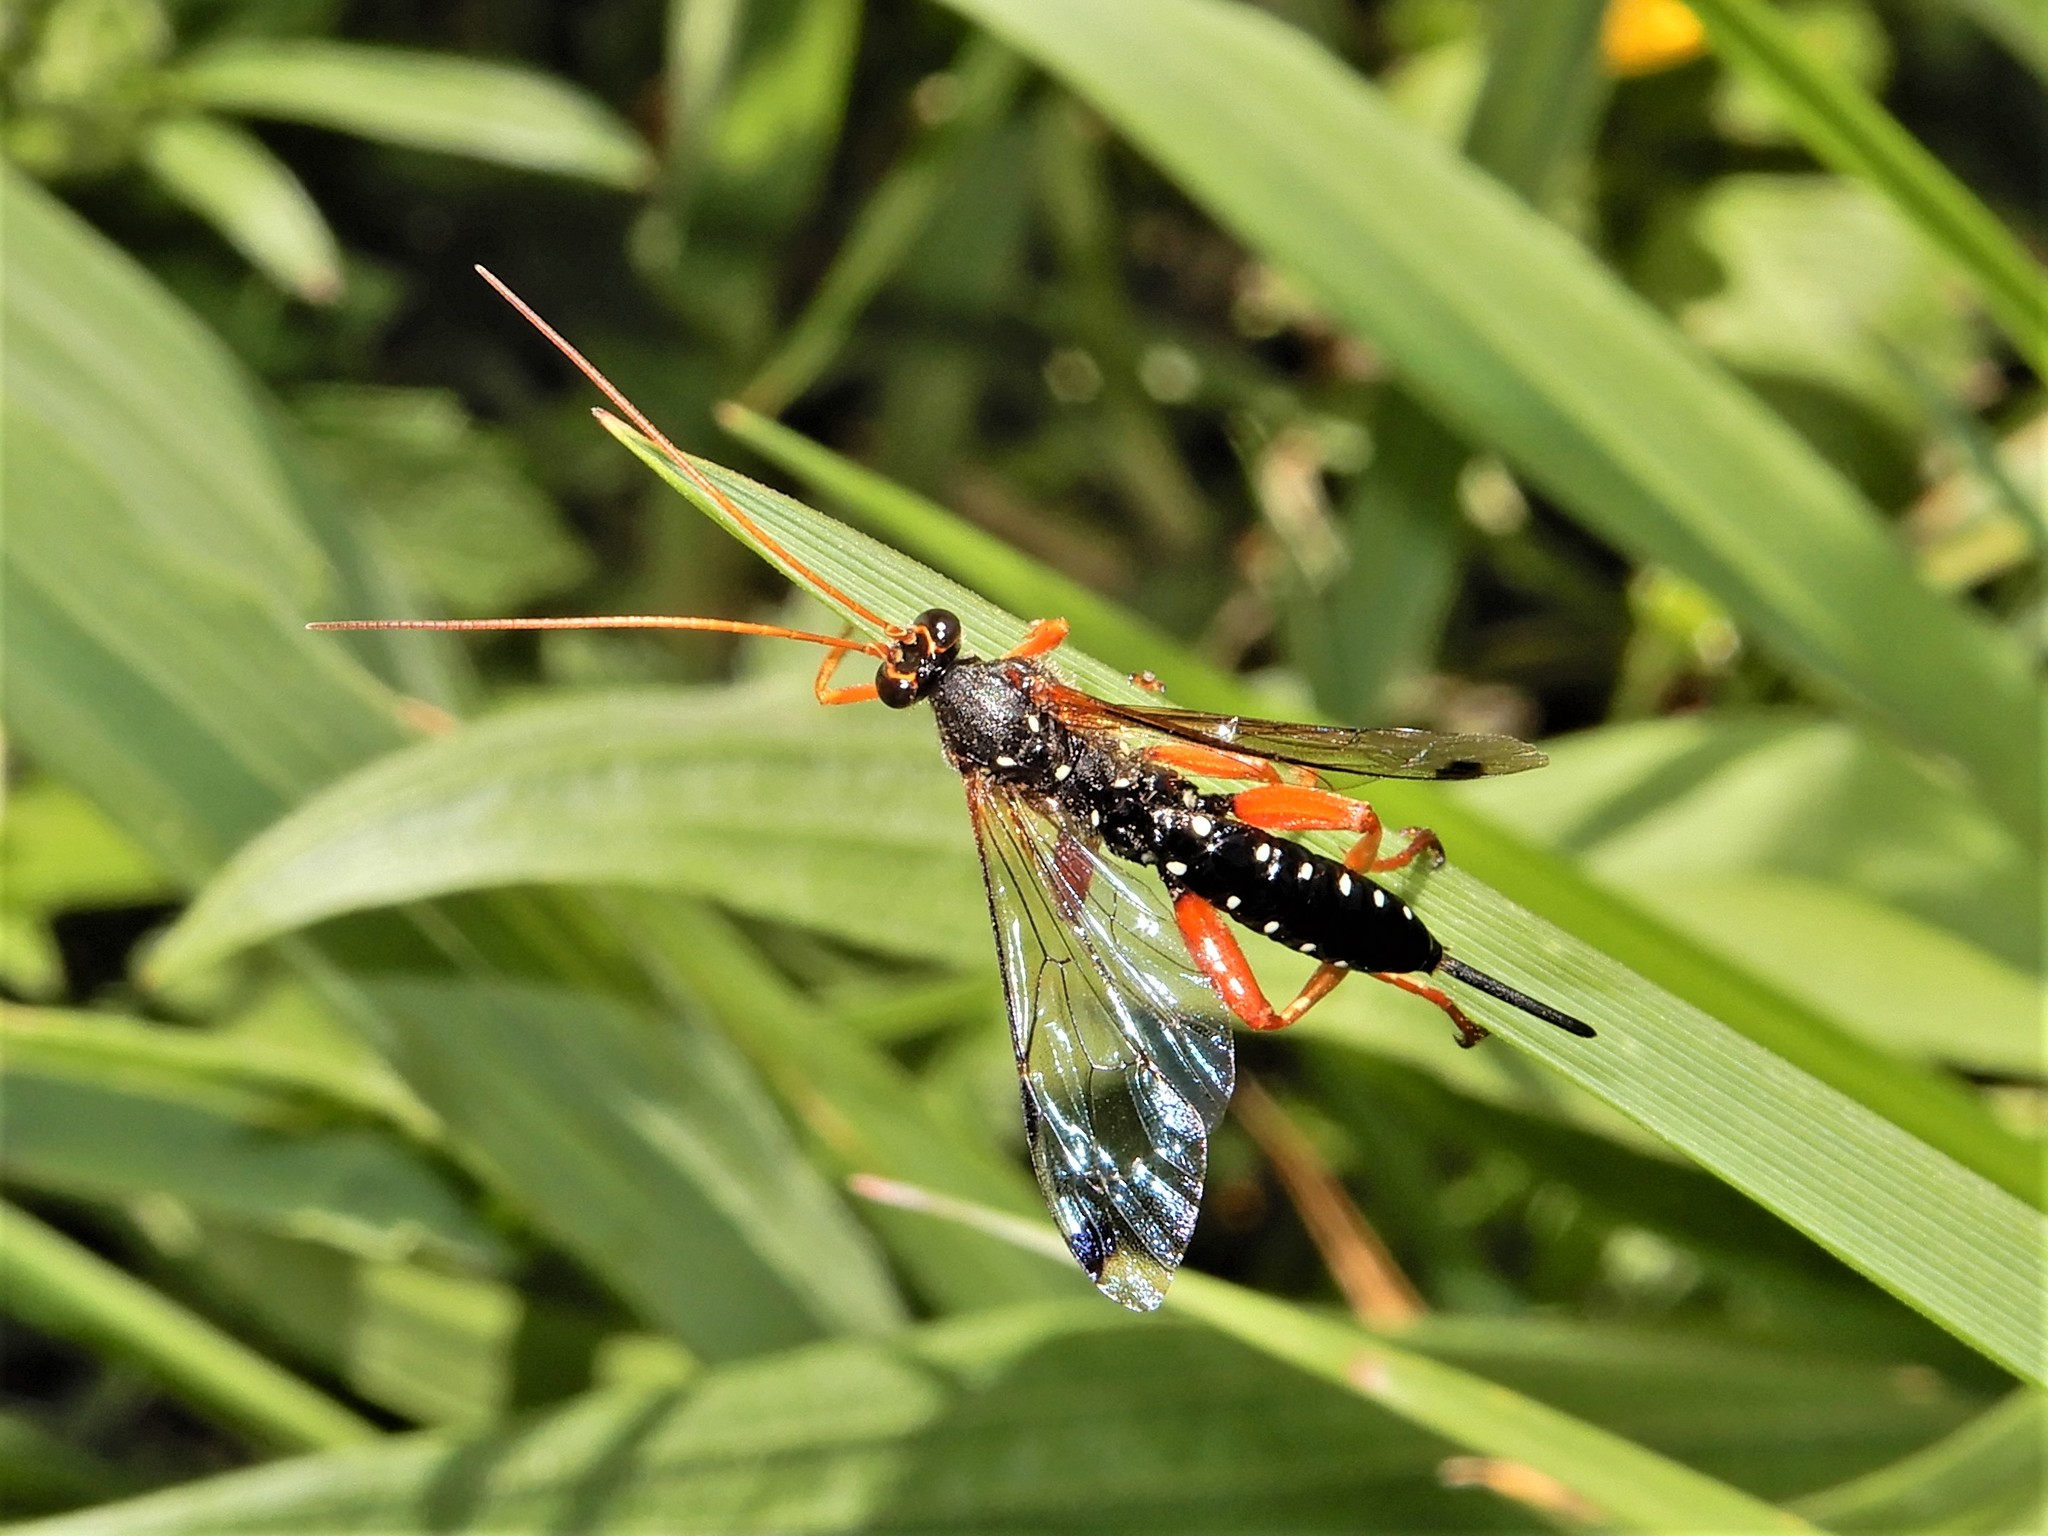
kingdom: Animalia
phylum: Arthropoda
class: Insecta
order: Hymenoptera
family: Ichneumonidae
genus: Echthromorpha
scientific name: Echthromorpha intricatoria
